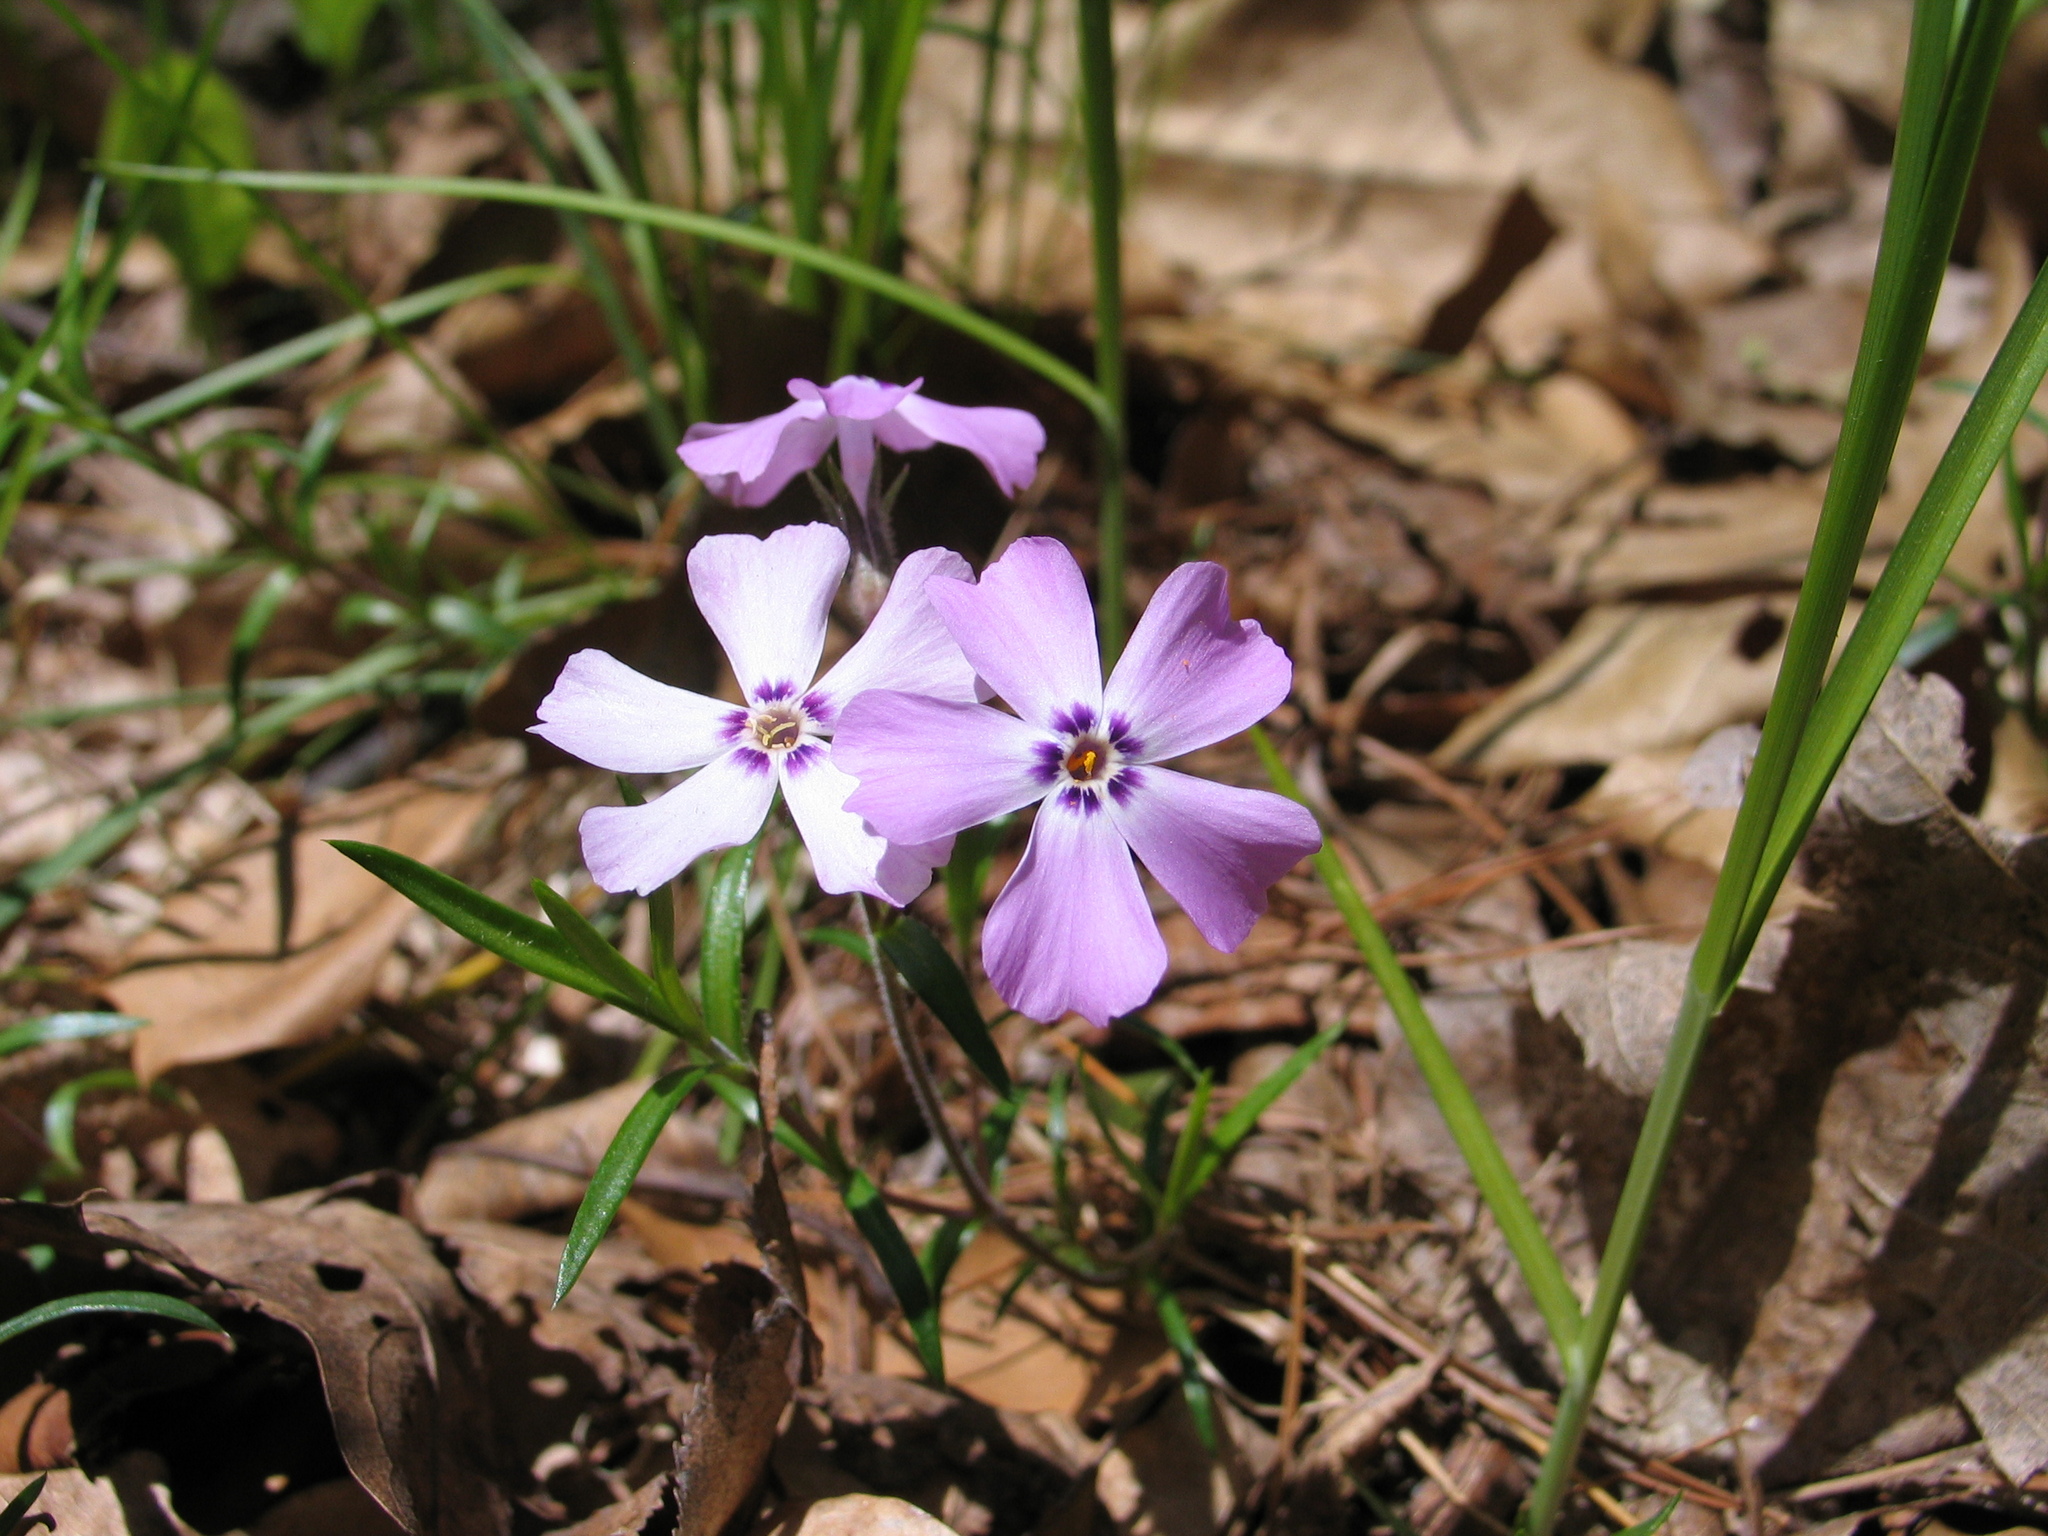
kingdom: Plantae
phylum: Tracheophyta
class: Magnoliopsida
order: Ericales
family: Polemoniaceae
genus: Phlox
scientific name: Phlox subulata
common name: Moss phlox
